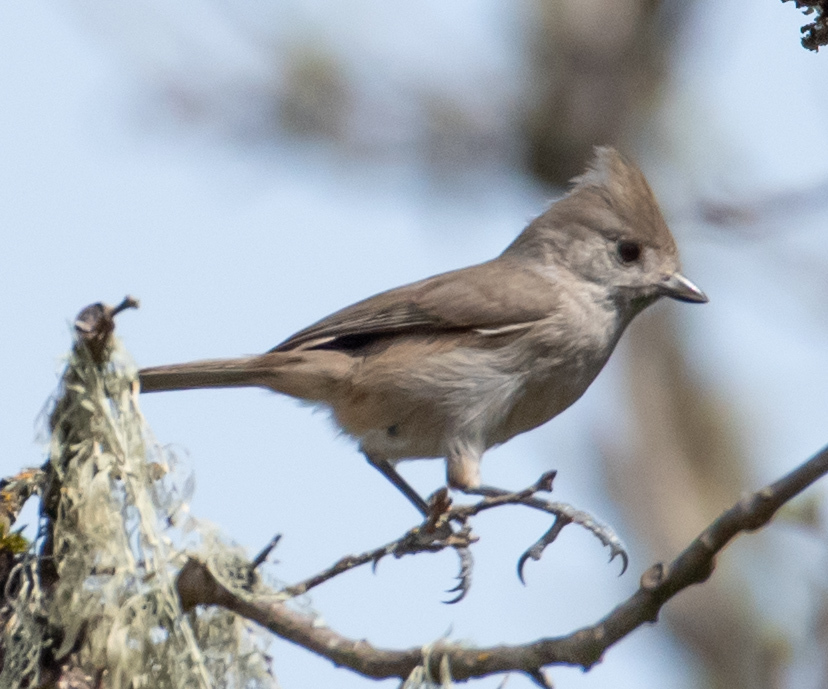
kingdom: Animalia
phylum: Chordata
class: Aves
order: Passeriformes
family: Paridae
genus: Baeolophus
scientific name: Baeolophus inornatus
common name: Oak titmouse
